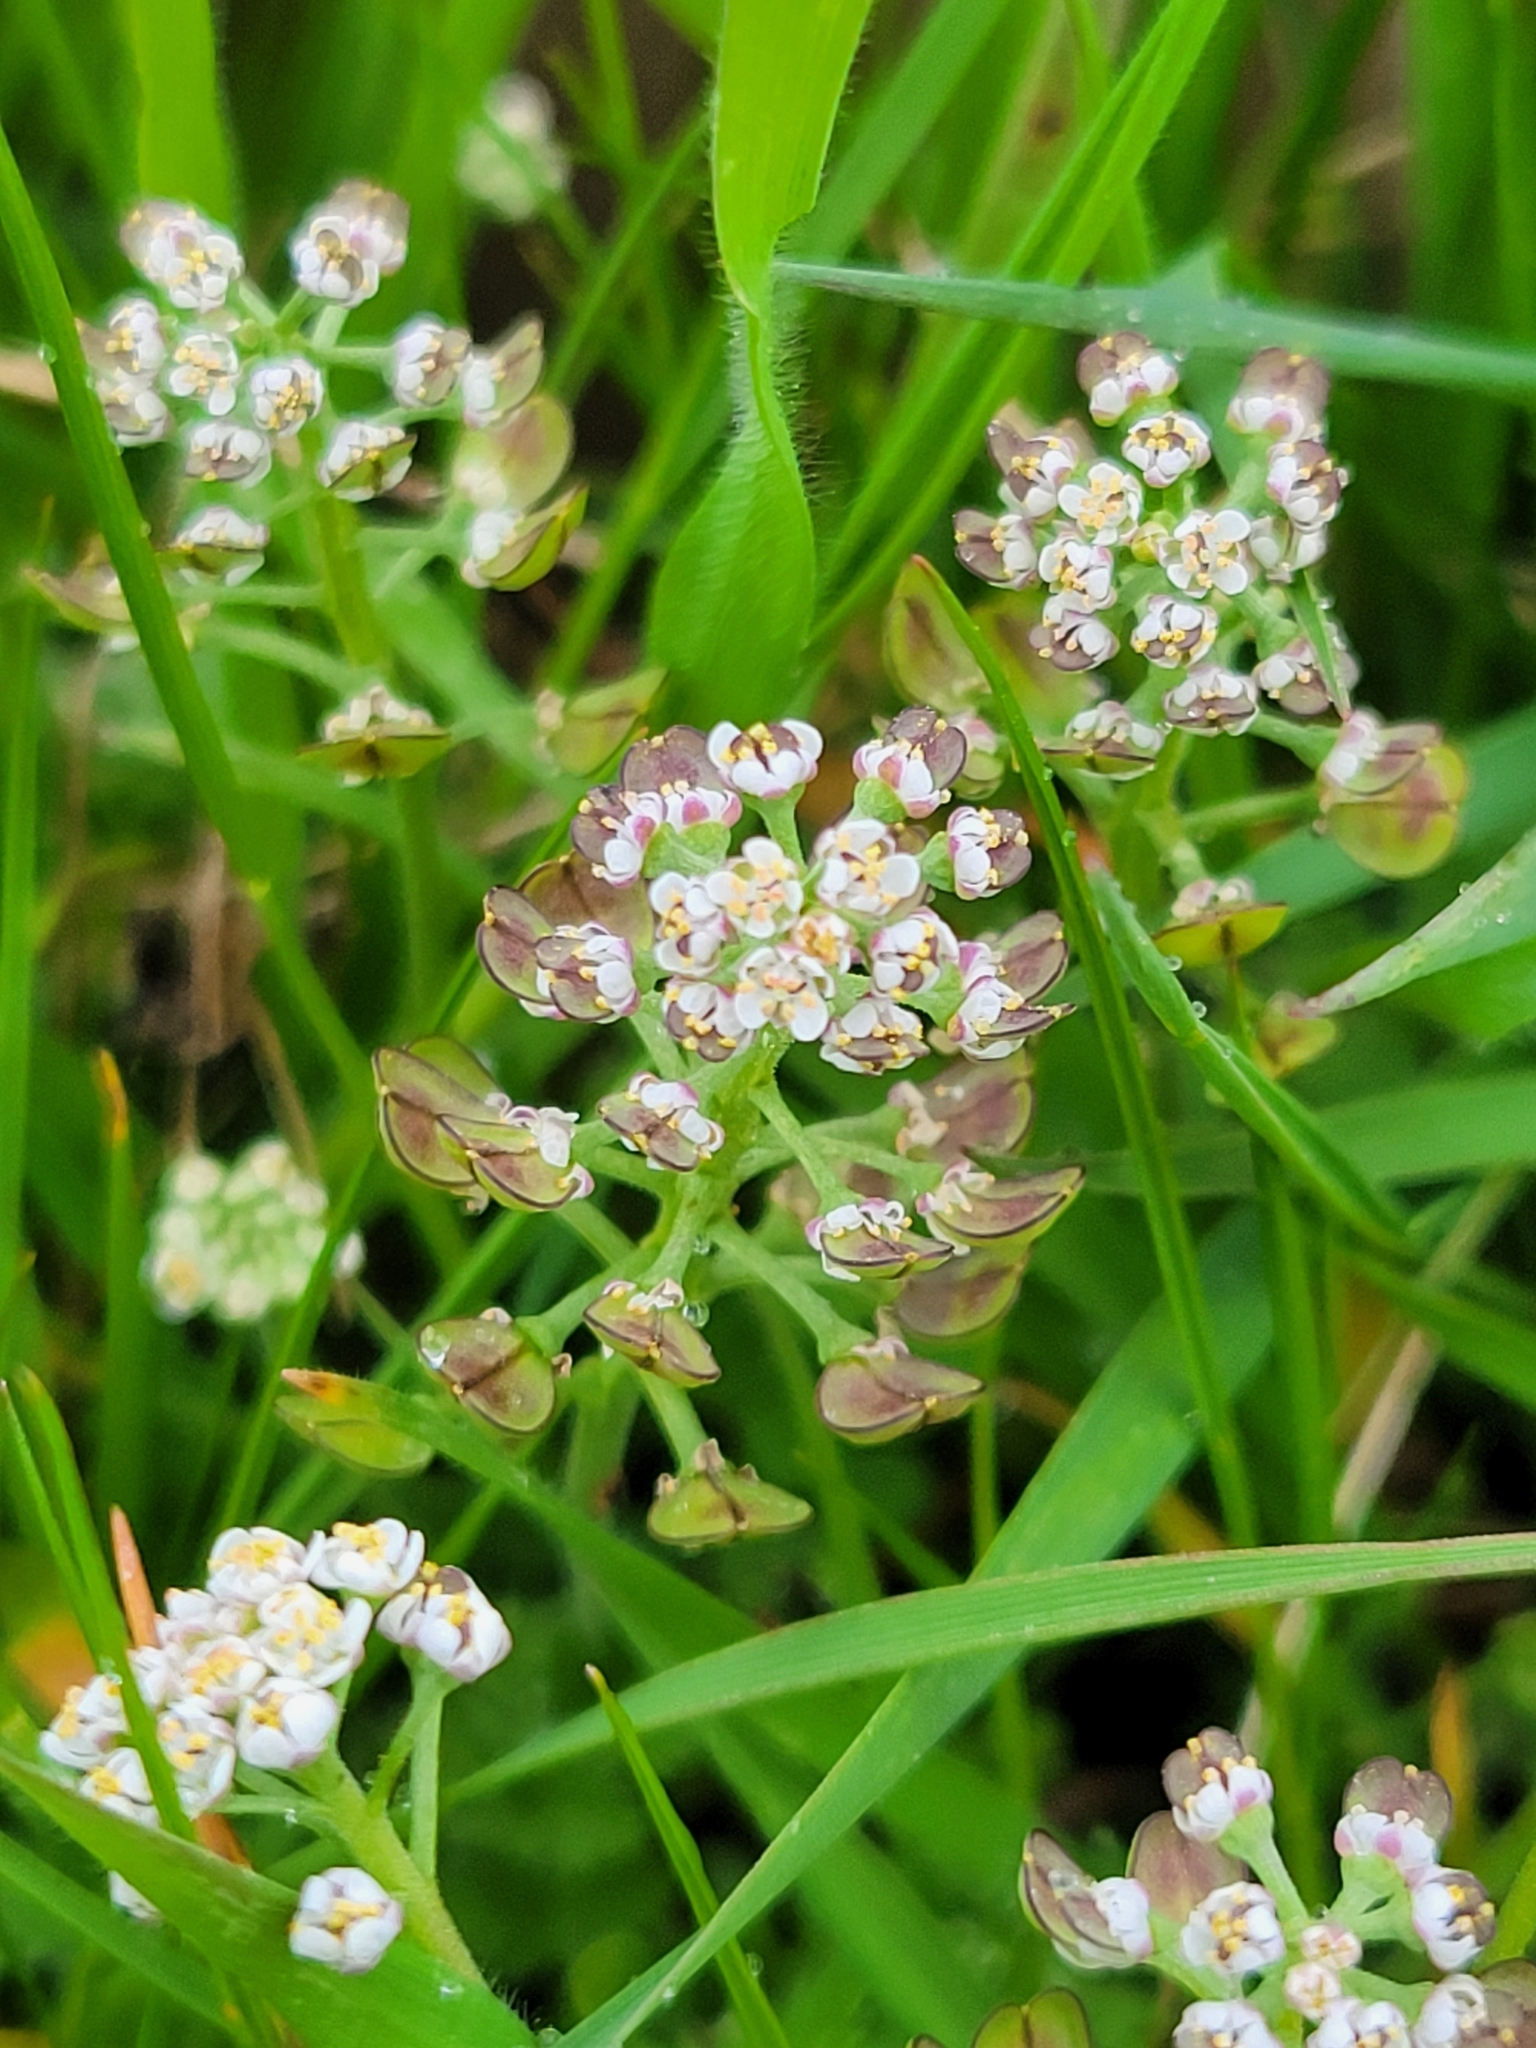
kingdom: Plantae
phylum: Tracheophyta
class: Magnoliopsida
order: Brassicales
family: Brassicaceae
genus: Teesdalia
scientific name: Teesdalia nudicaulis
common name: Shepherd's cress
